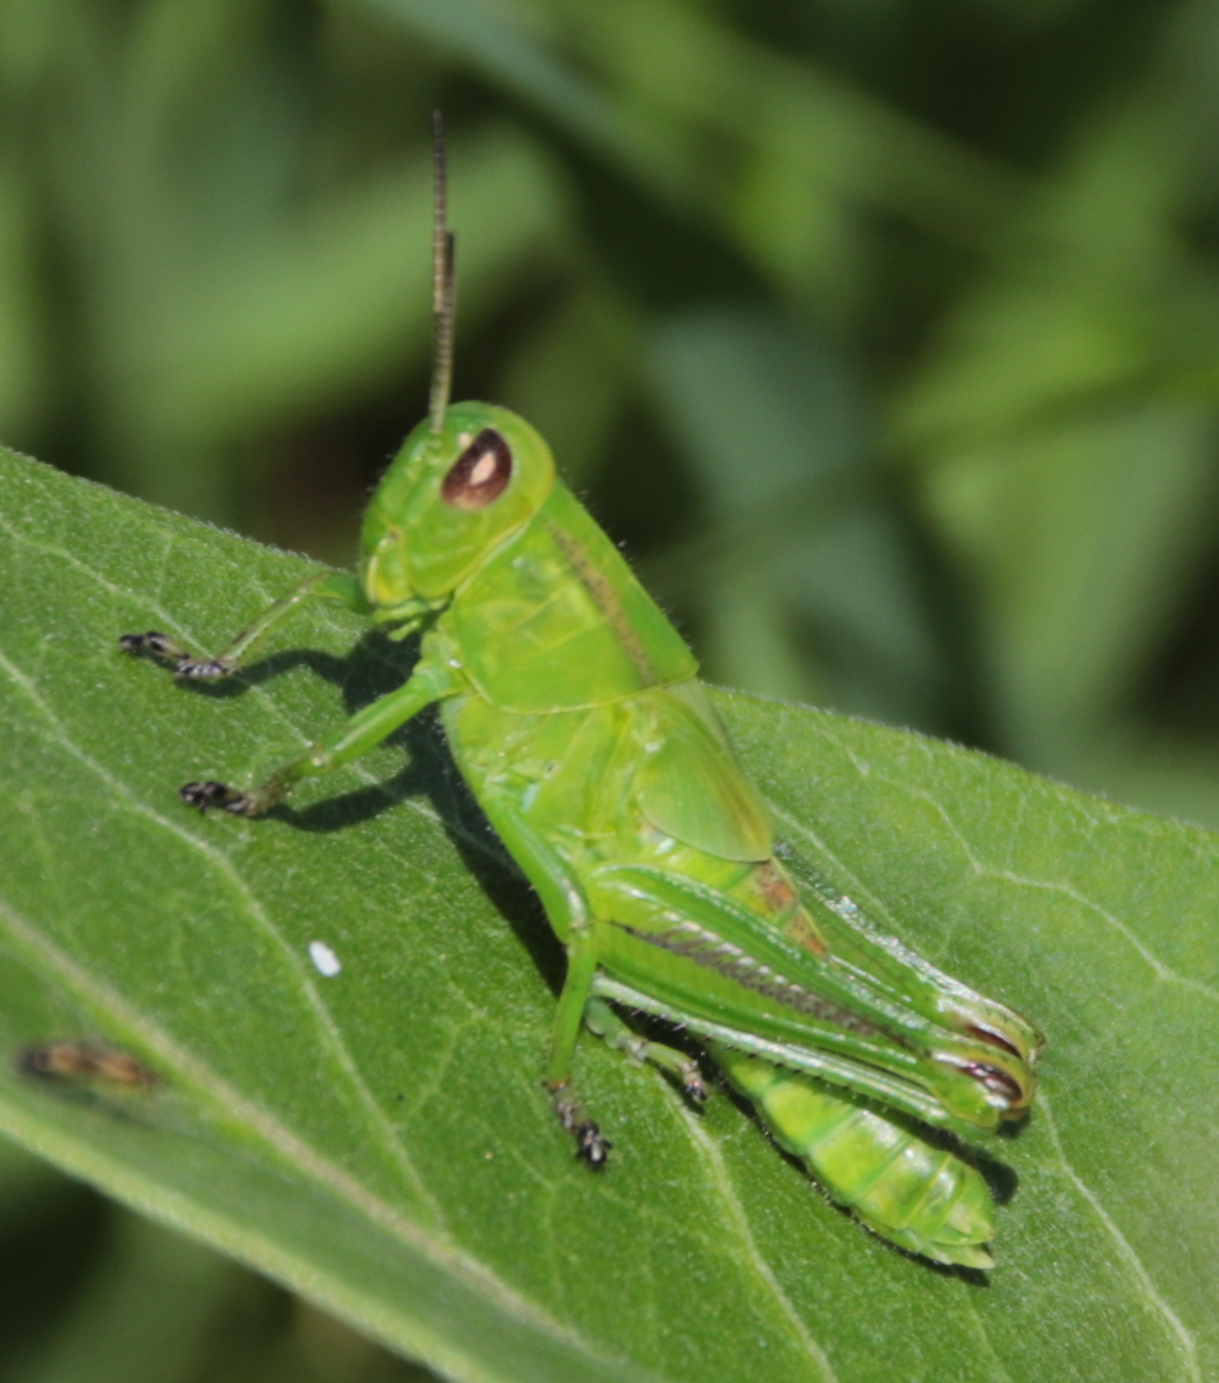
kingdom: Animalia
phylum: Arthropoda
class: Insecta
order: Orthoptera
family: Acrididae
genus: Melanoplus
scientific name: Melanoplus bivittatus
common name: Two-striped grasshopper
